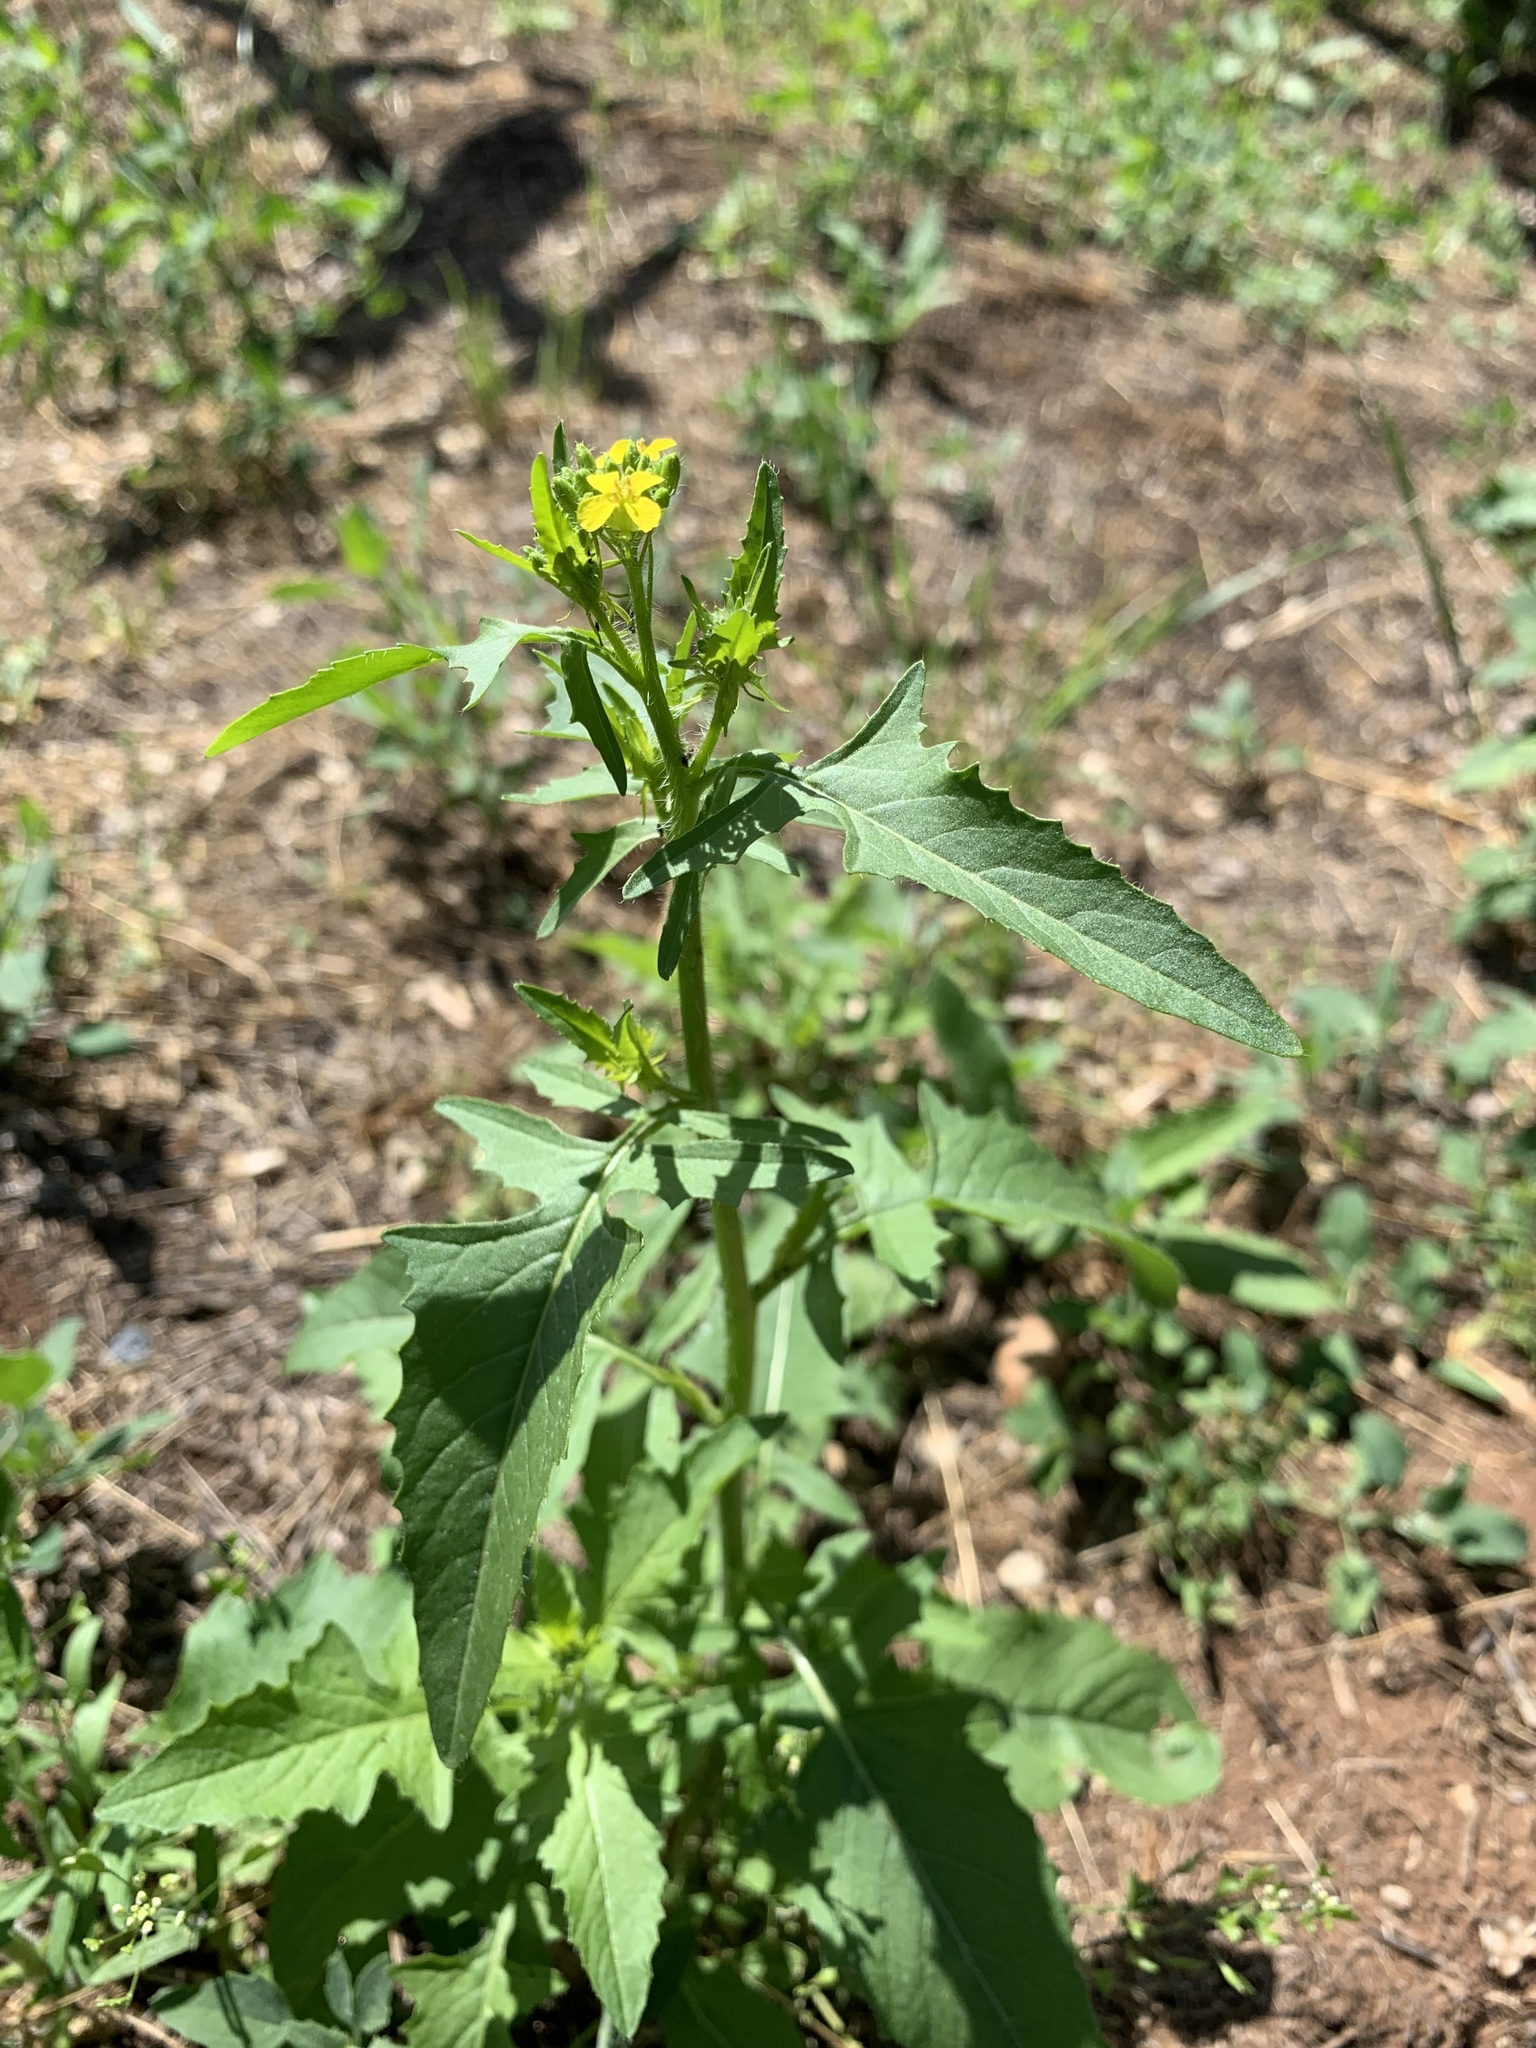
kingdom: Plantae
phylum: Tracheophyta
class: Magnoliopsida
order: Brassicales
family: Brassicaceae
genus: Sisymbrium
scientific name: Sisymbrium loeselii
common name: False london-rocket
